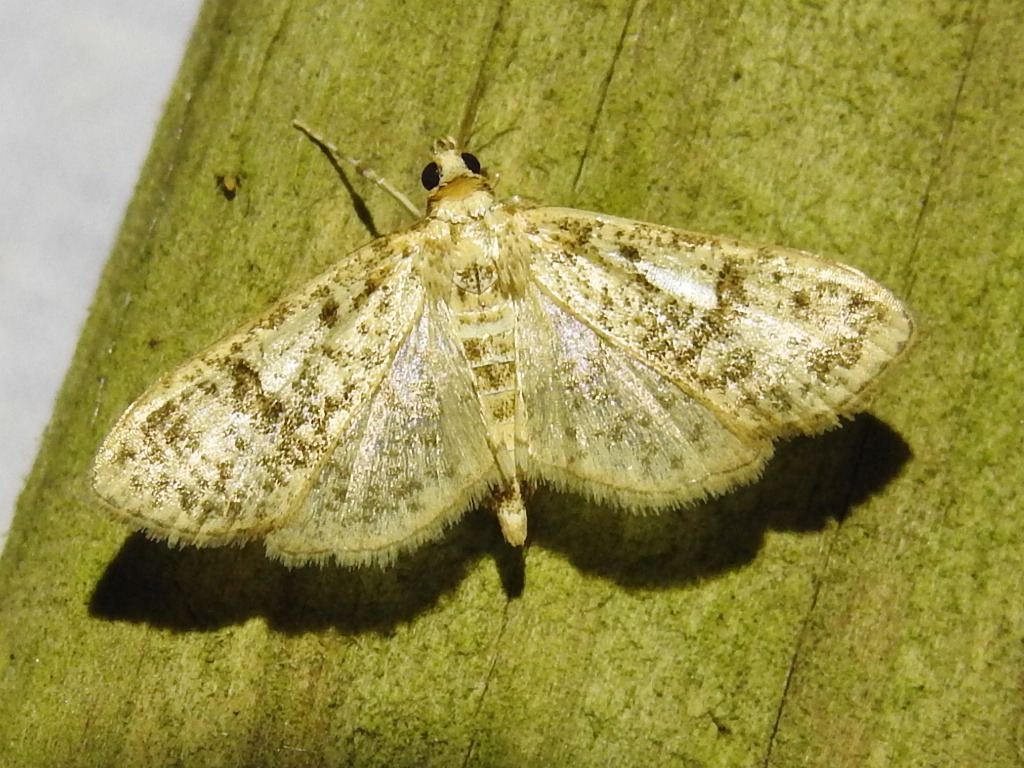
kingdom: Animalia
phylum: Arthropoda
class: Insecta
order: Lepidoptera
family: Crambidae
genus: Palpita
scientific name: Palpita freemanalis
